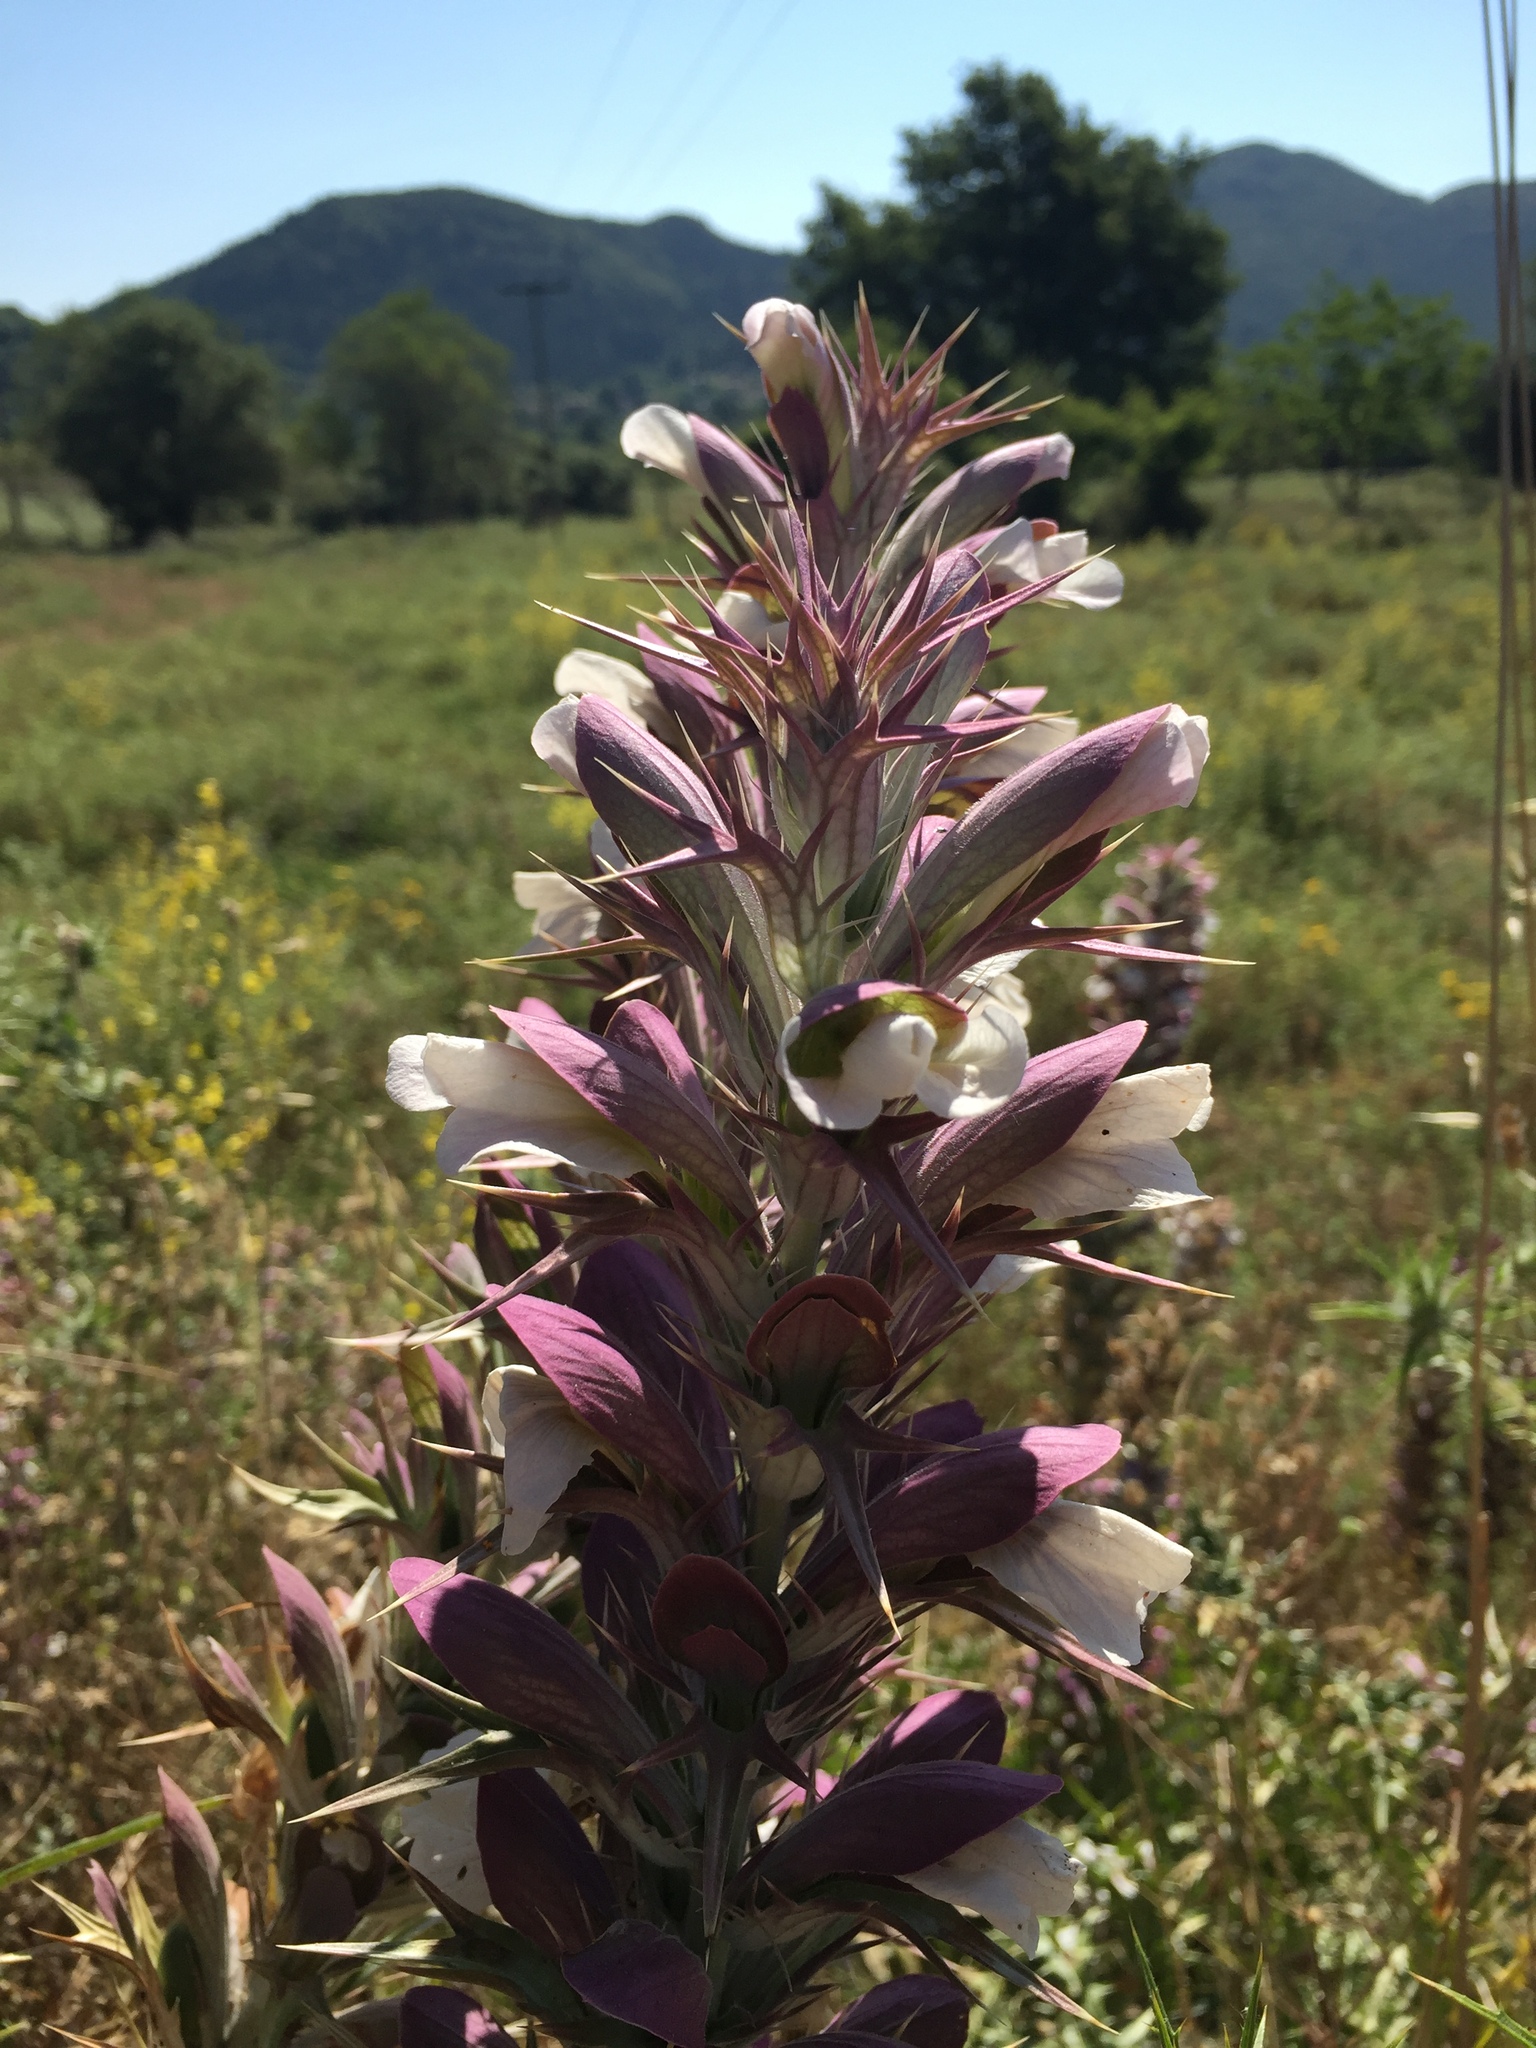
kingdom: Plantae
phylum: Tracheophyta
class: Magnoliopsida
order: Lamiales
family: Acanthaceae
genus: Acanthus
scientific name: Acanthus spinosus
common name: Spiny bear's-breech
